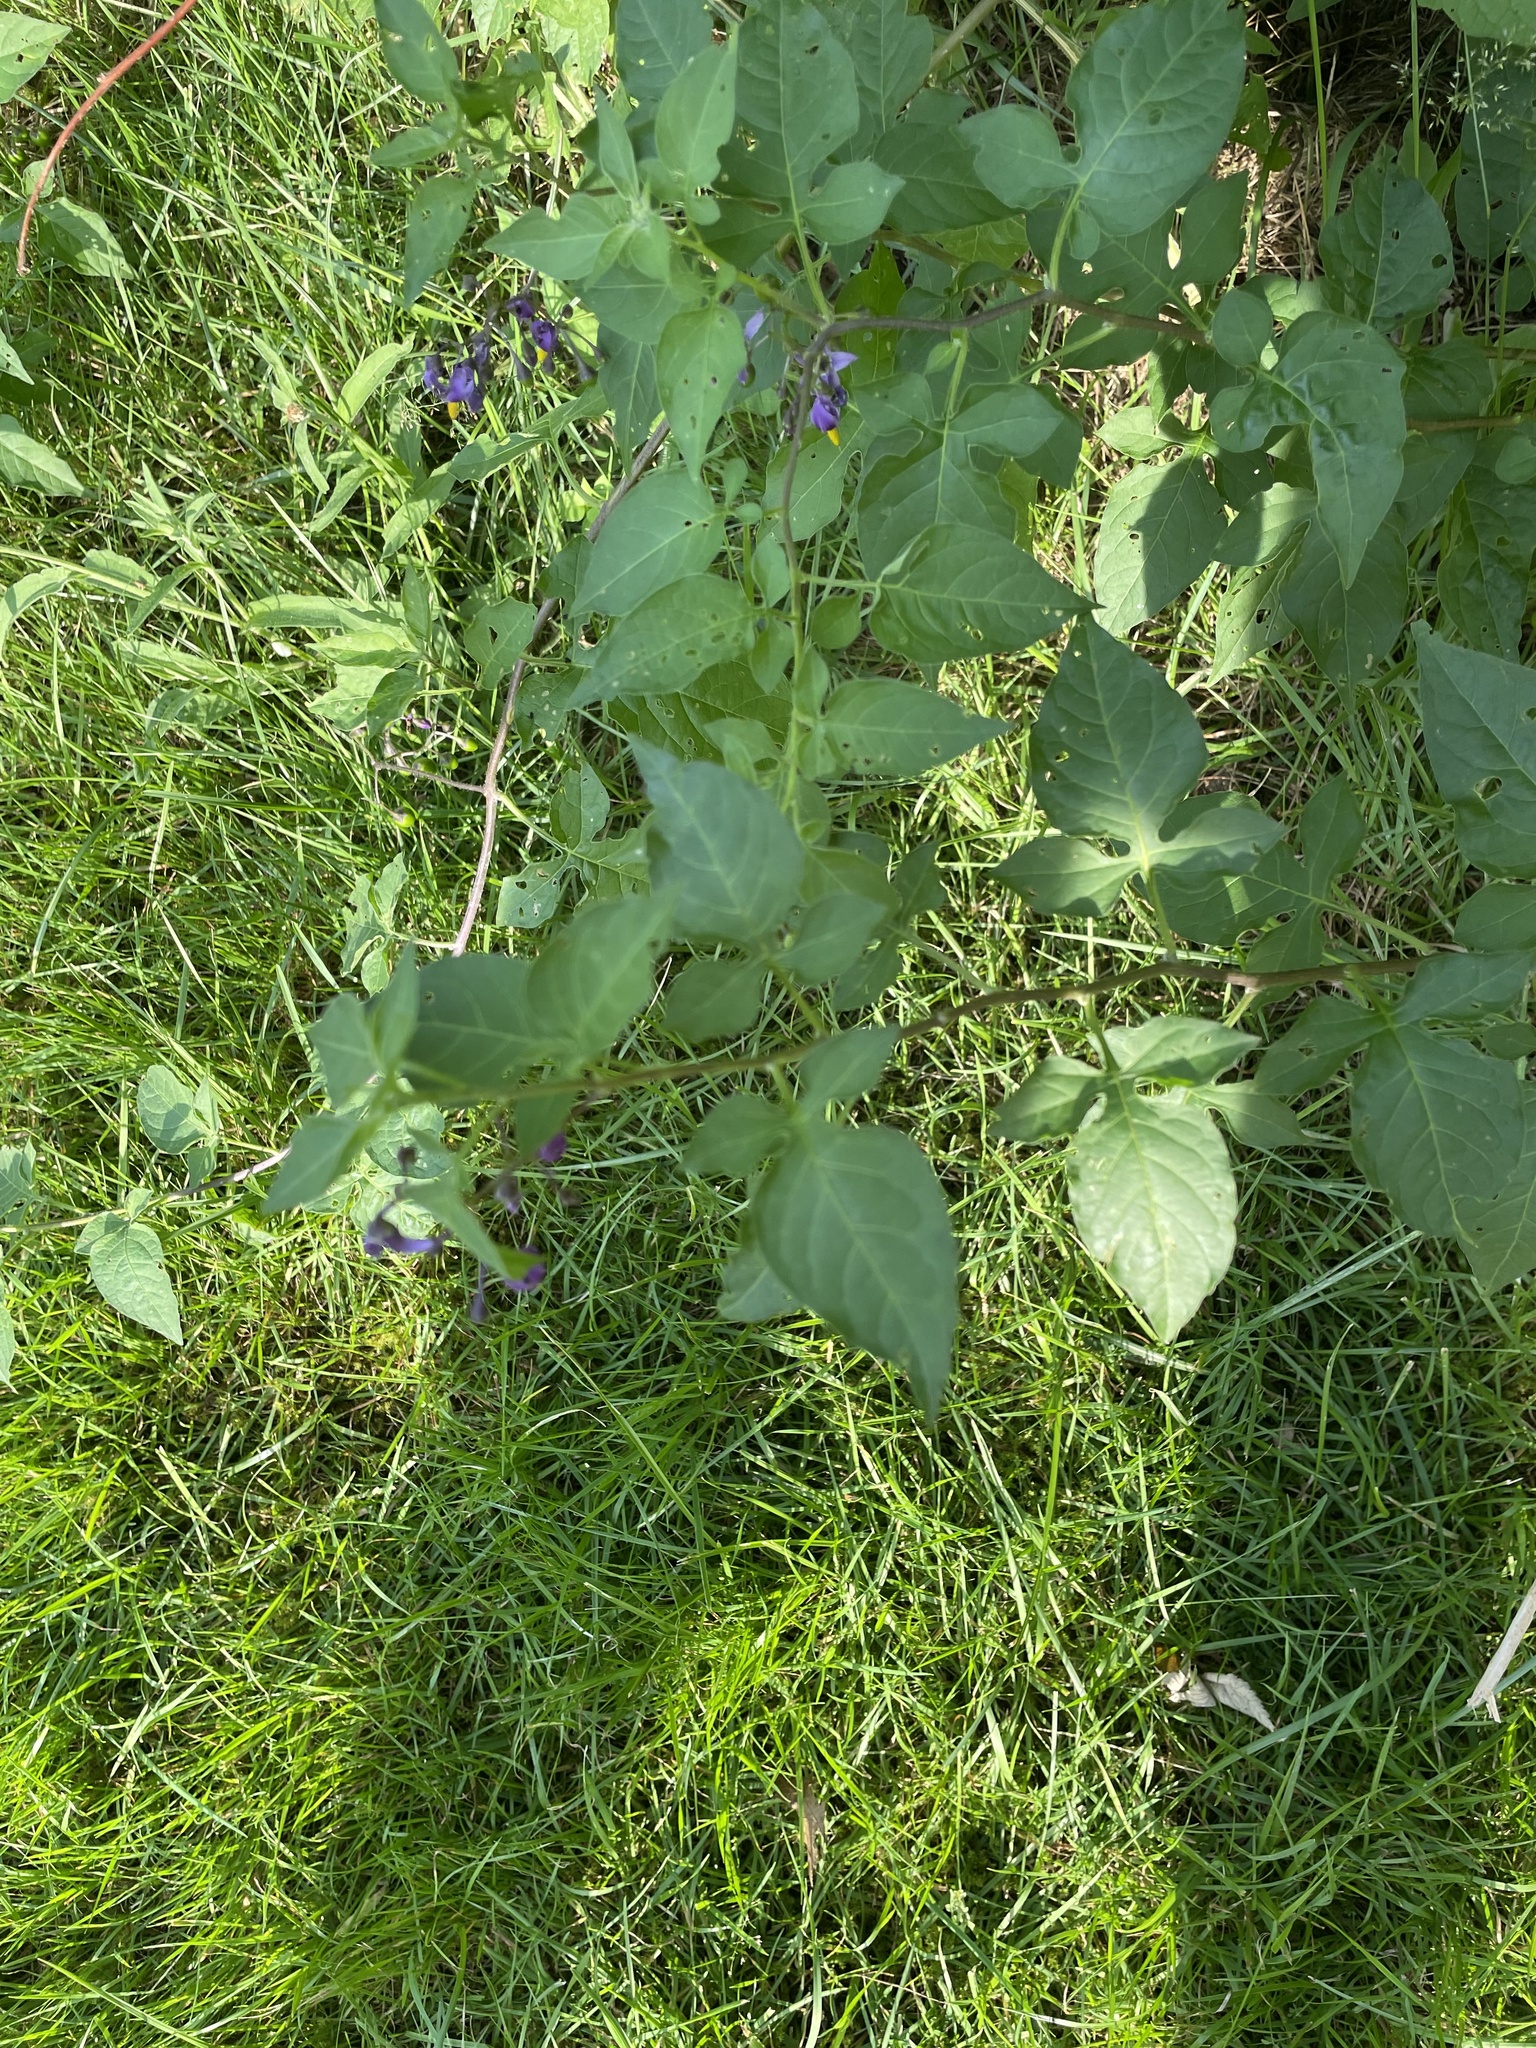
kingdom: Plantae
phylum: Tracheophyta
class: Magnoliopsida
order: Solanales
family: Solanaceae
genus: Solanum
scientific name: Solanum dulcamara
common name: Climbing nightshade
